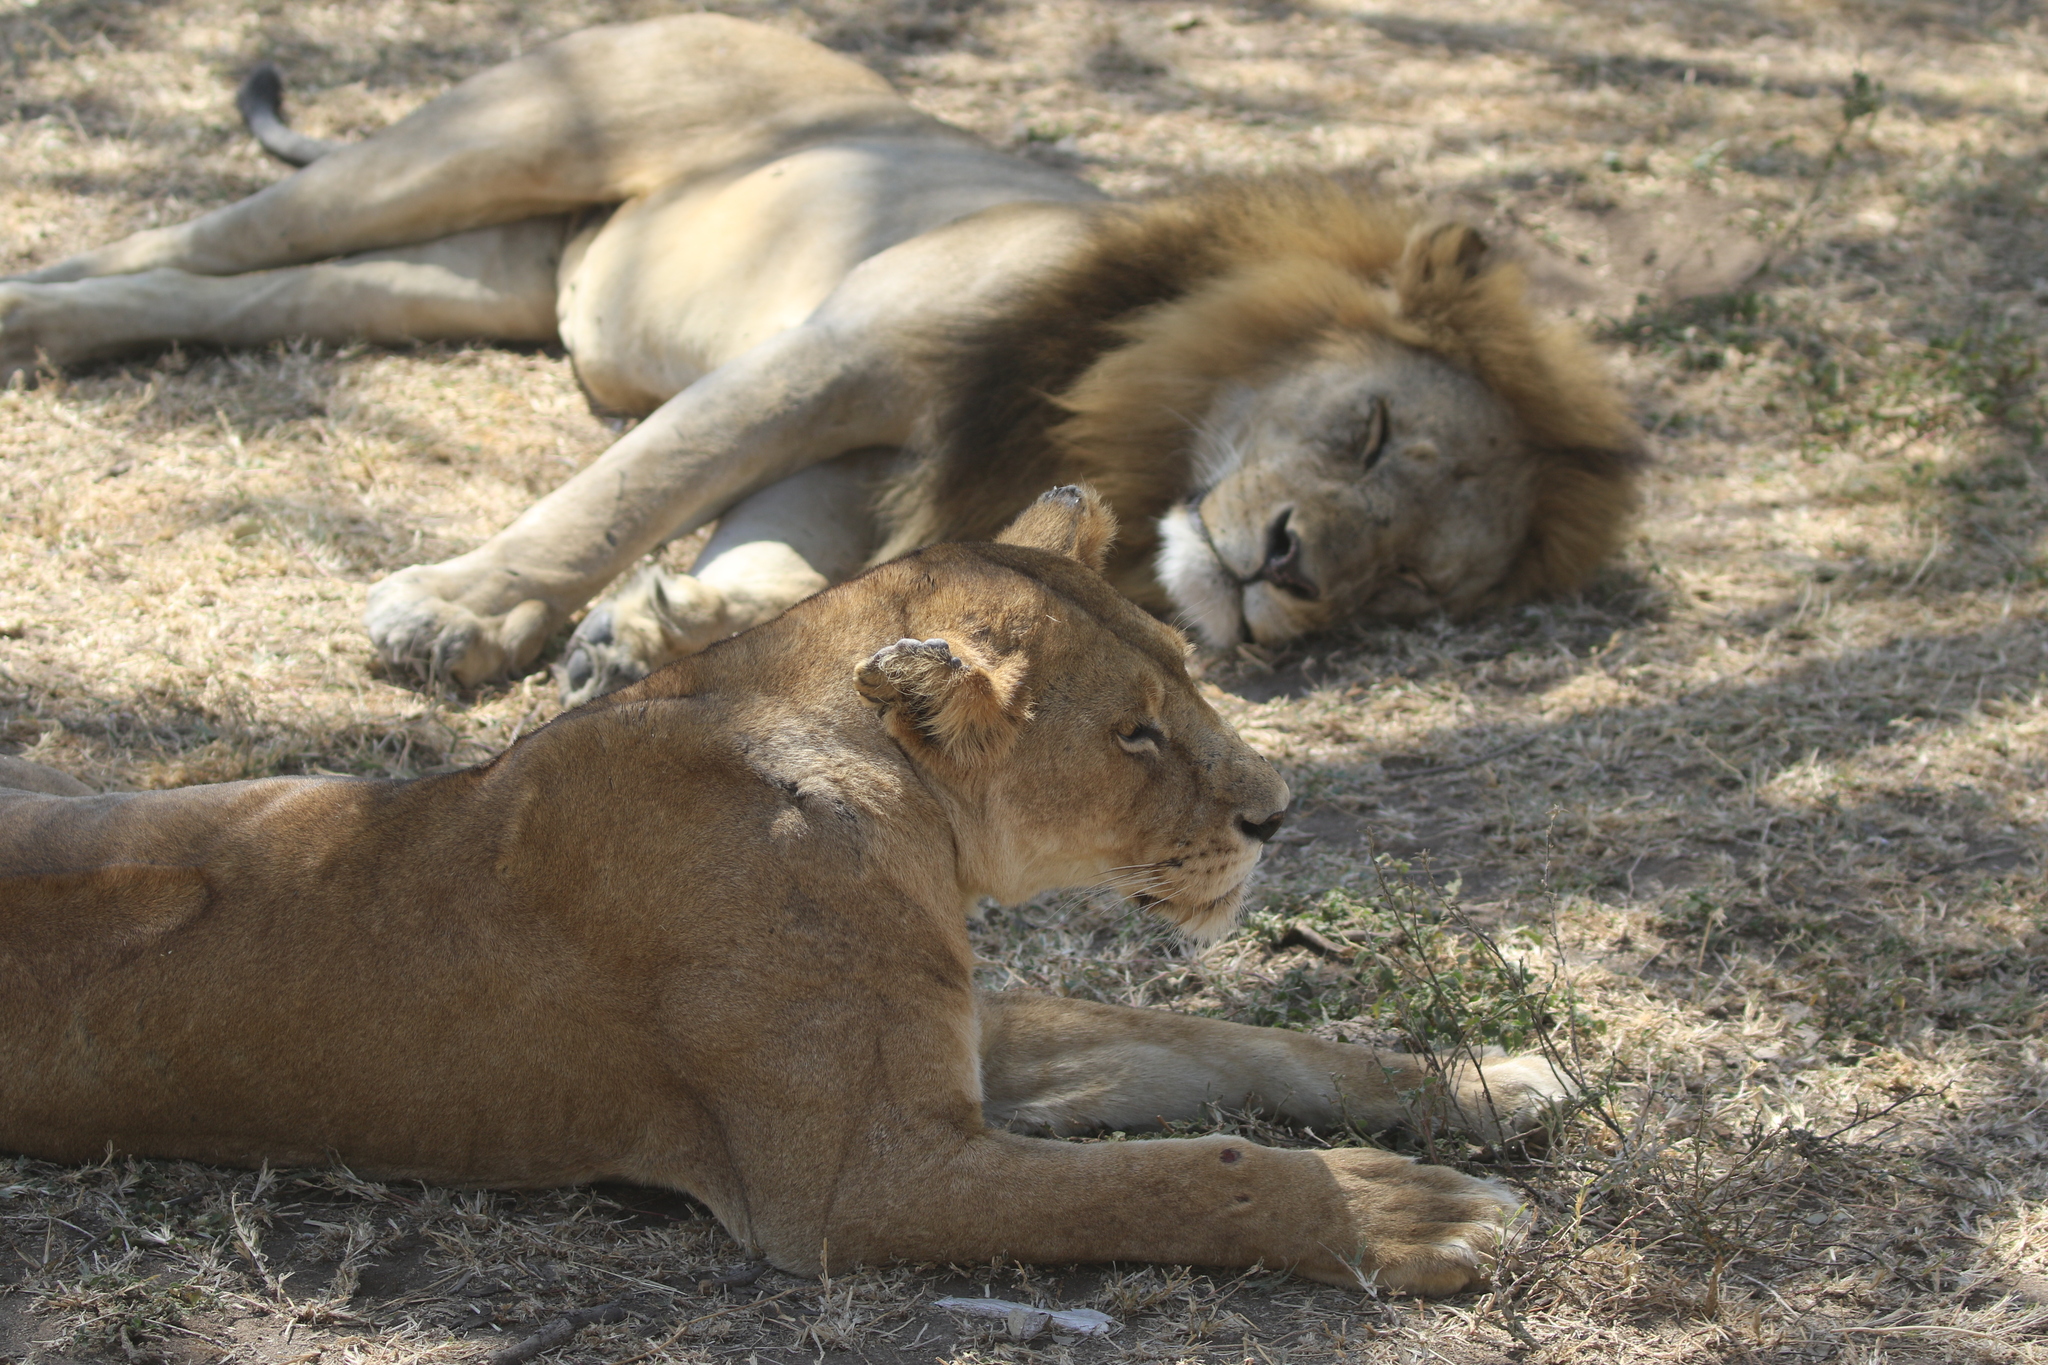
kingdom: Animalia
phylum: Chordata
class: Mammalia
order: Carnivora
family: Felidae
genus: Panthera
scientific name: Panthera leo
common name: Lion
